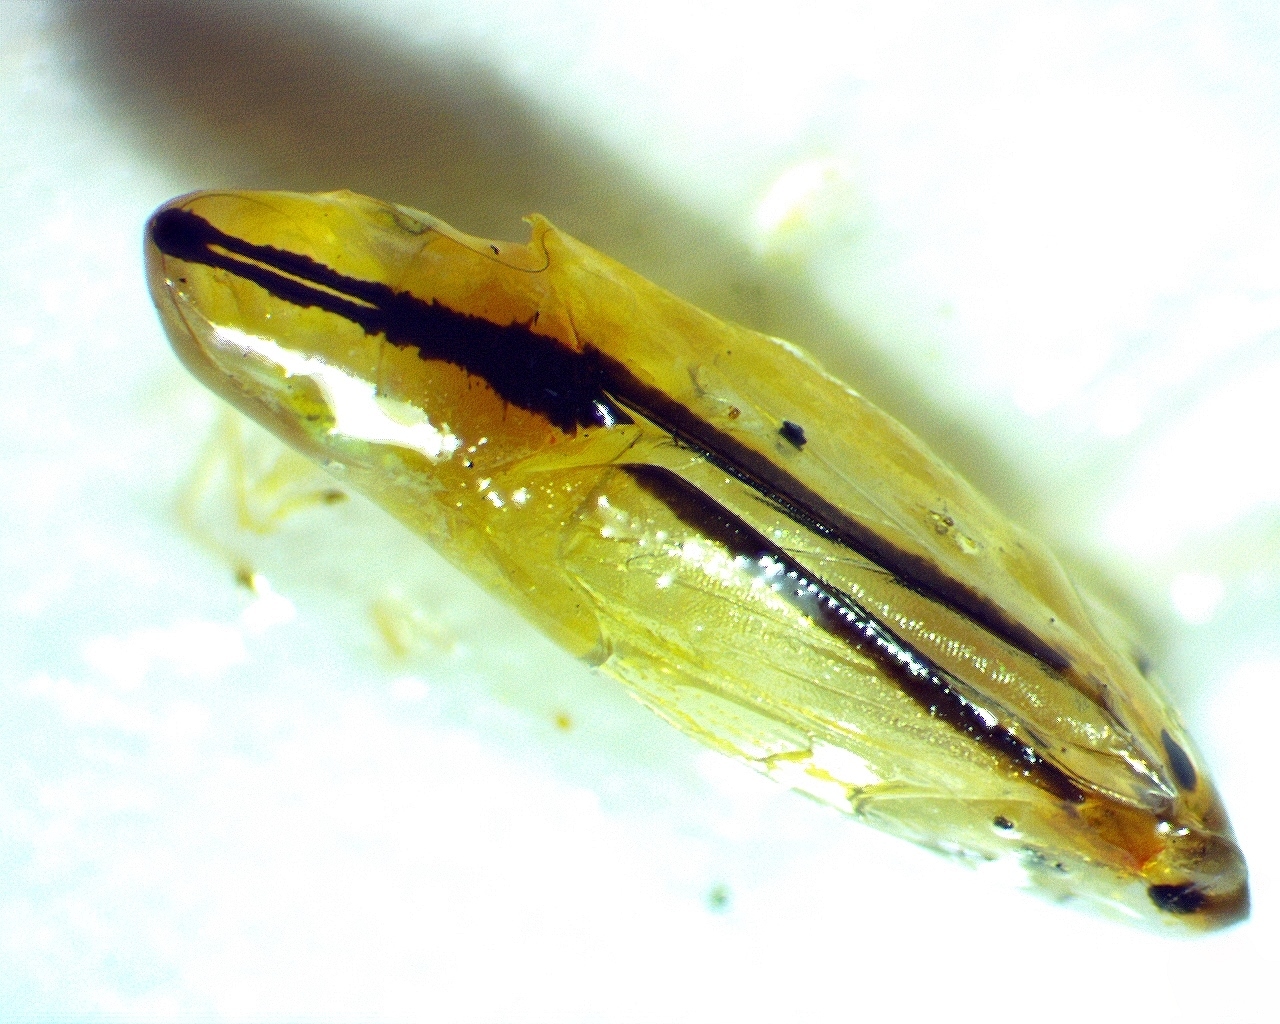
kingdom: Animalia
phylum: Arthropoda
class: Insecta
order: Hemiptera
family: Cicadellidae
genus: Sophonia
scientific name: Sophonia orientalis
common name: Two-spotted leafhopper
